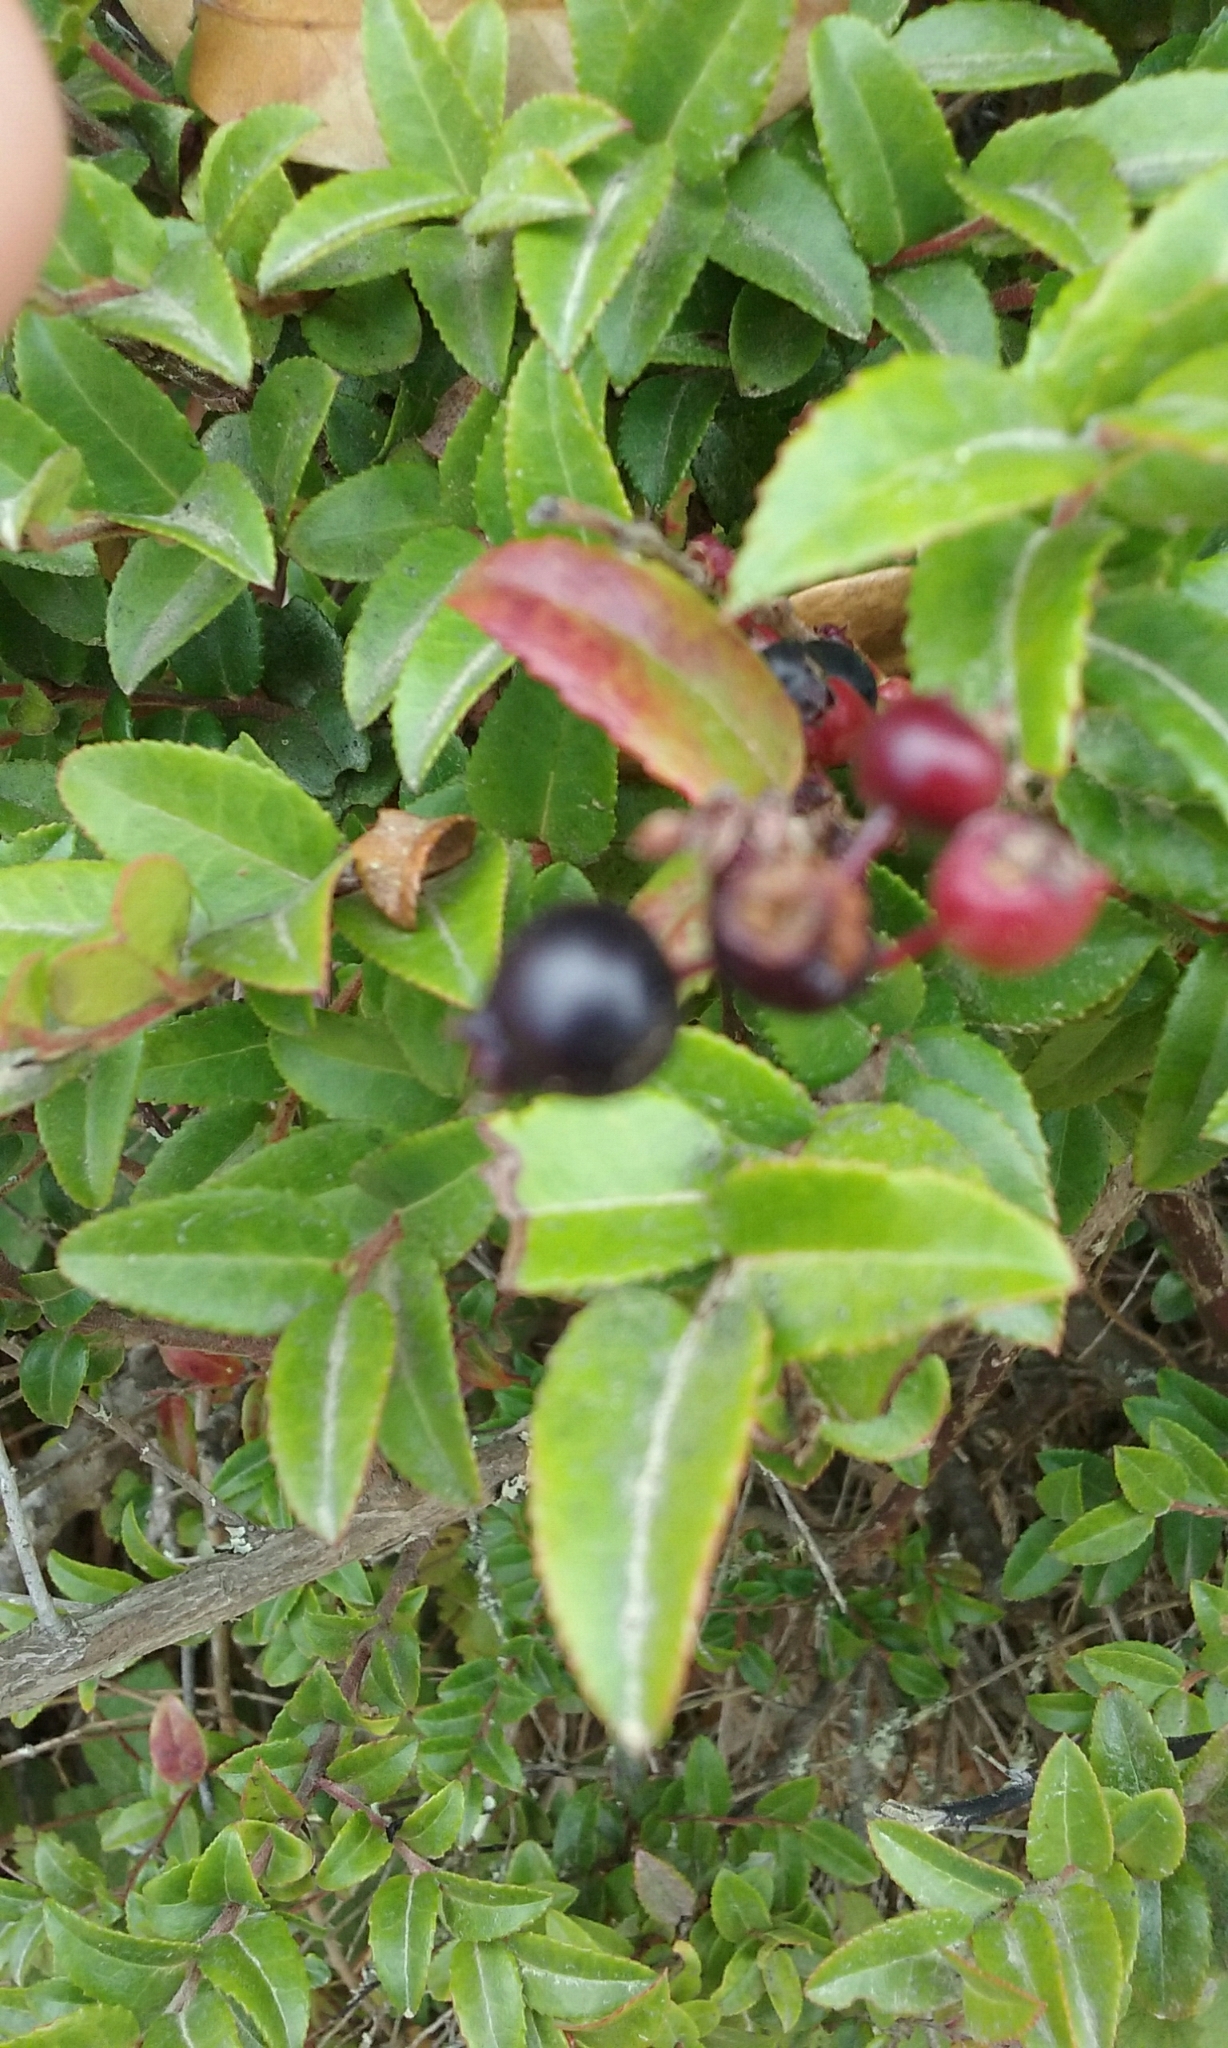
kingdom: Plantae
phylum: Tracheophyta
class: Magnoliopsida
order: Ericales
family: Ericaceae
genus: Vaccinium
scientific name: Vaccinium ovatum
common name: California-huckleberry
